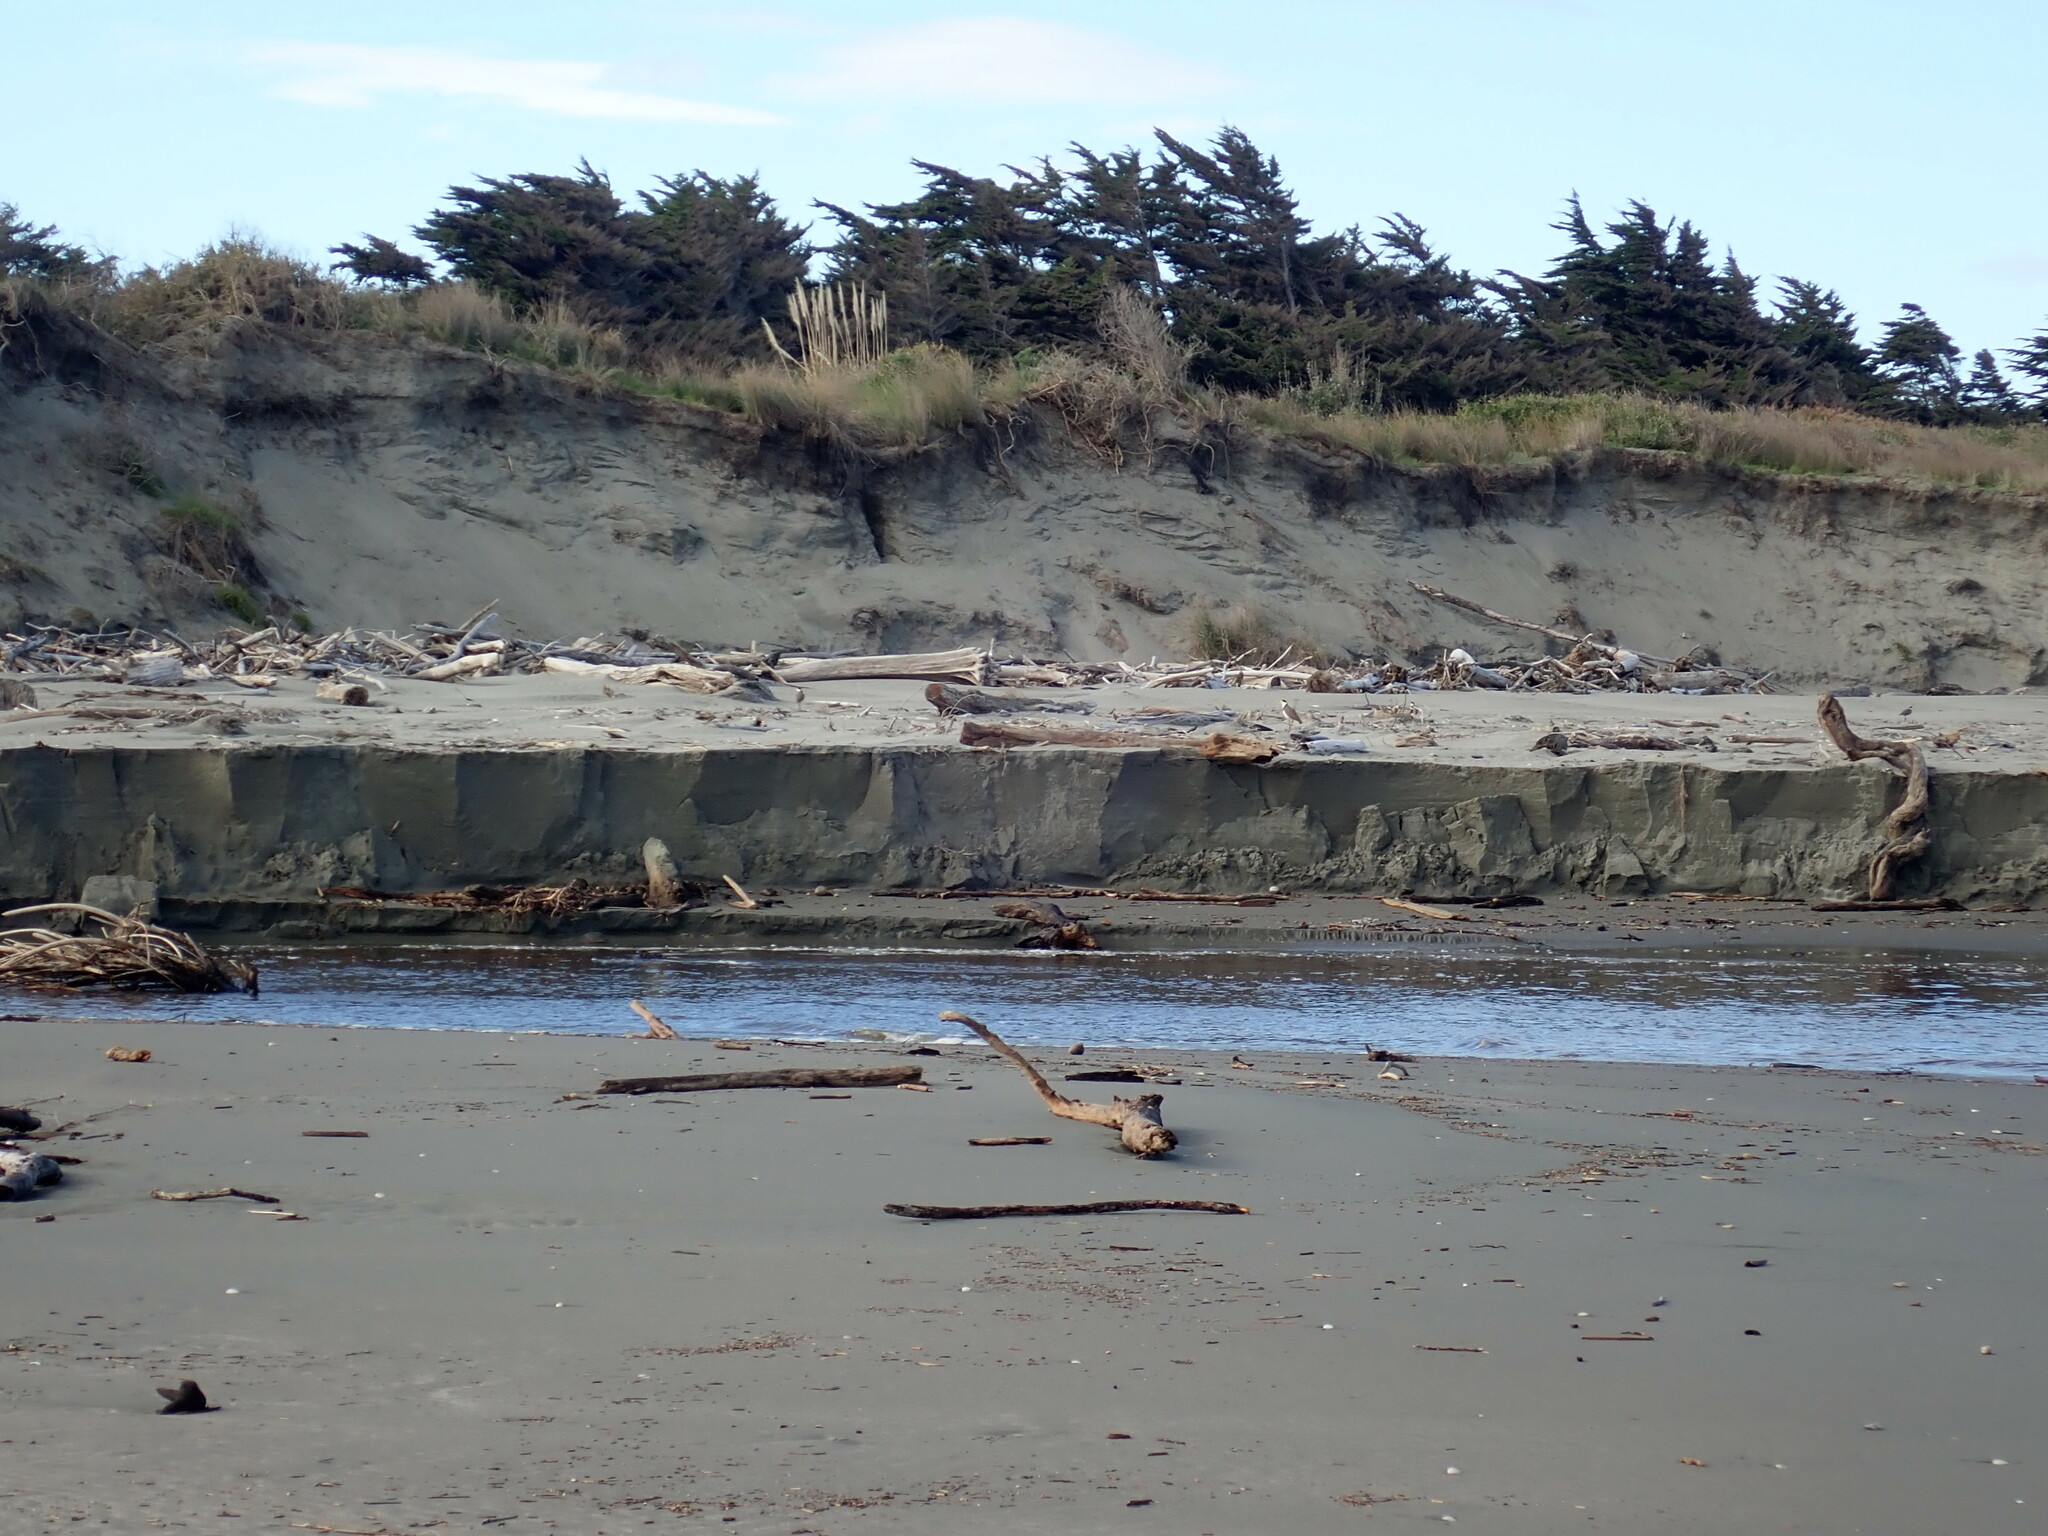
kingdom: Animalia
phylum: Chordata
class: Aves
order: Charadriiformes
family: Charadriidae
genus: Vanellus
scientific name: Vanellus miles
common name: Masked lapwing
